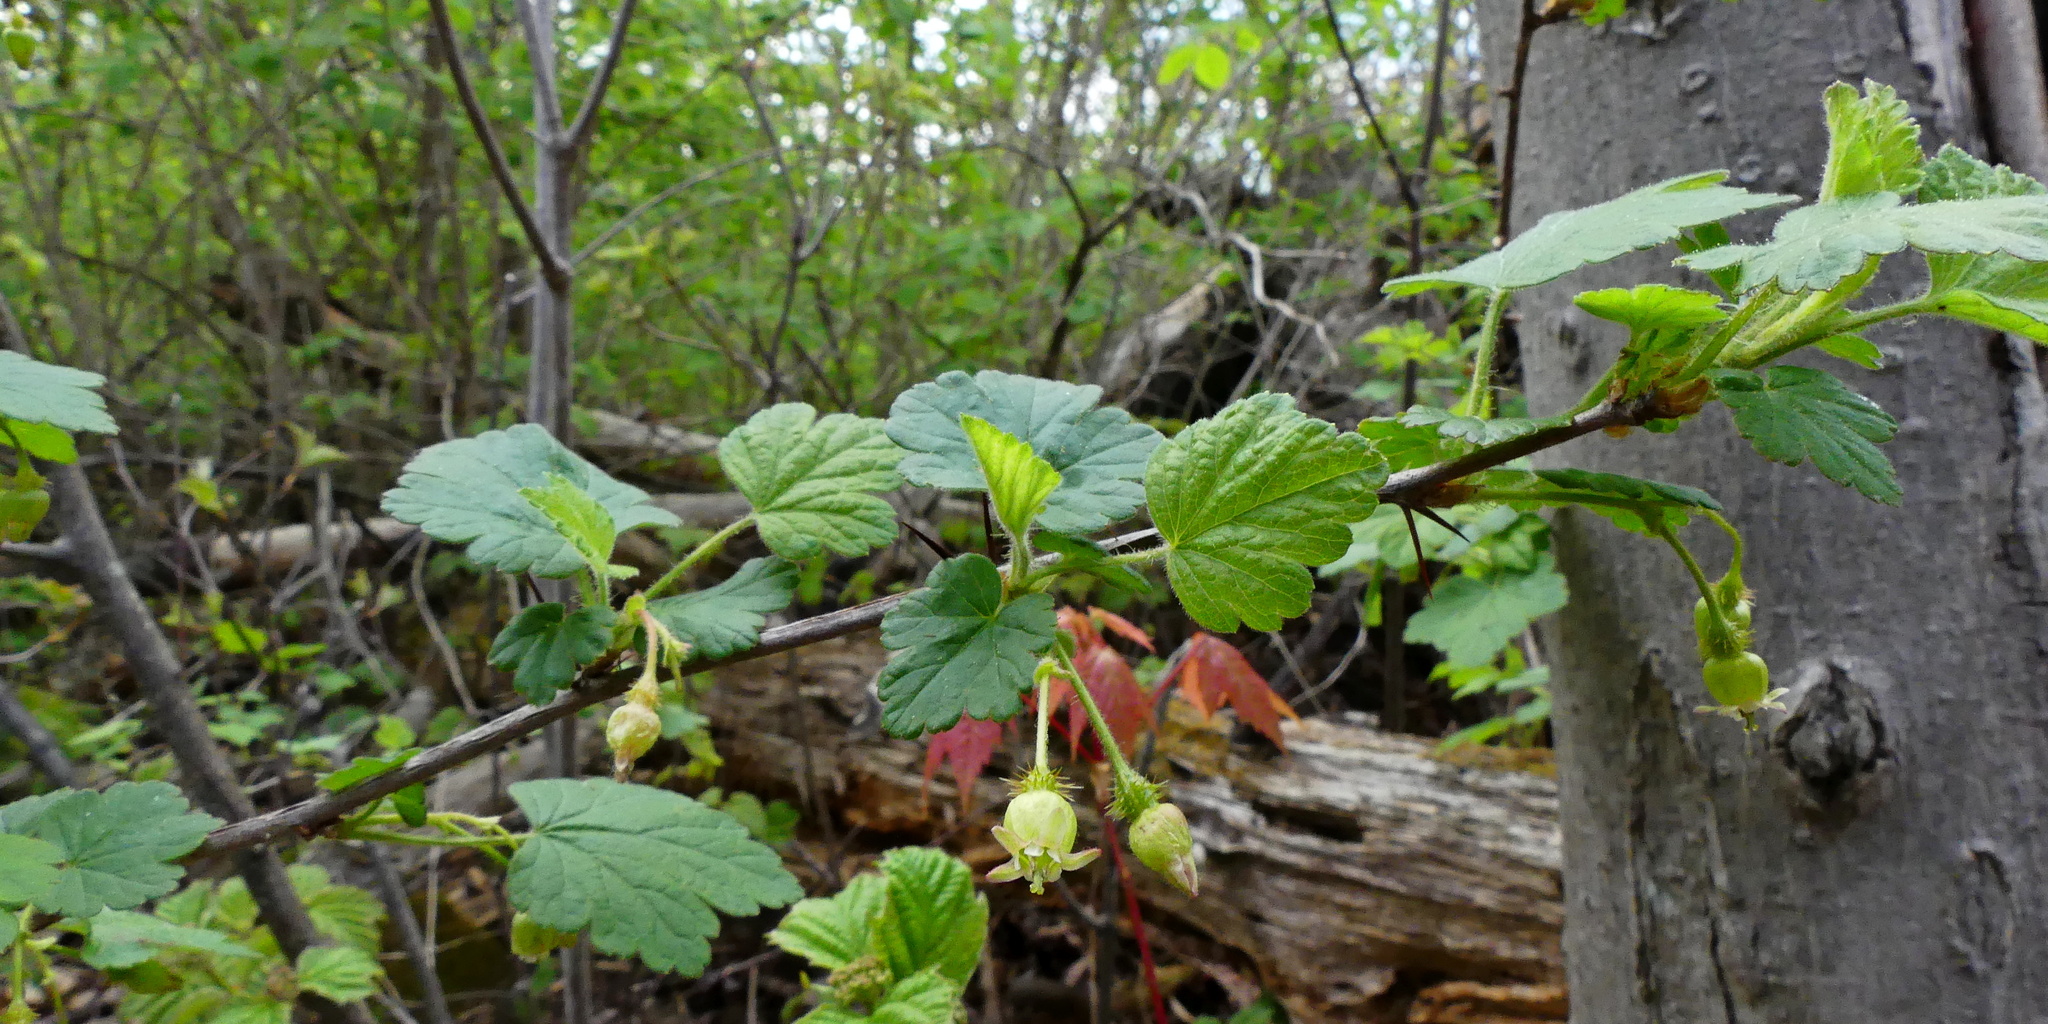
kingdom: Plantae
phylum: Tracheophyta
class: Magnoliopsida
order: Saxifragales
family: Grossulariaceae
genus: Ribes
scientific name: Ribes cynosbati
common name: American gooseberry
